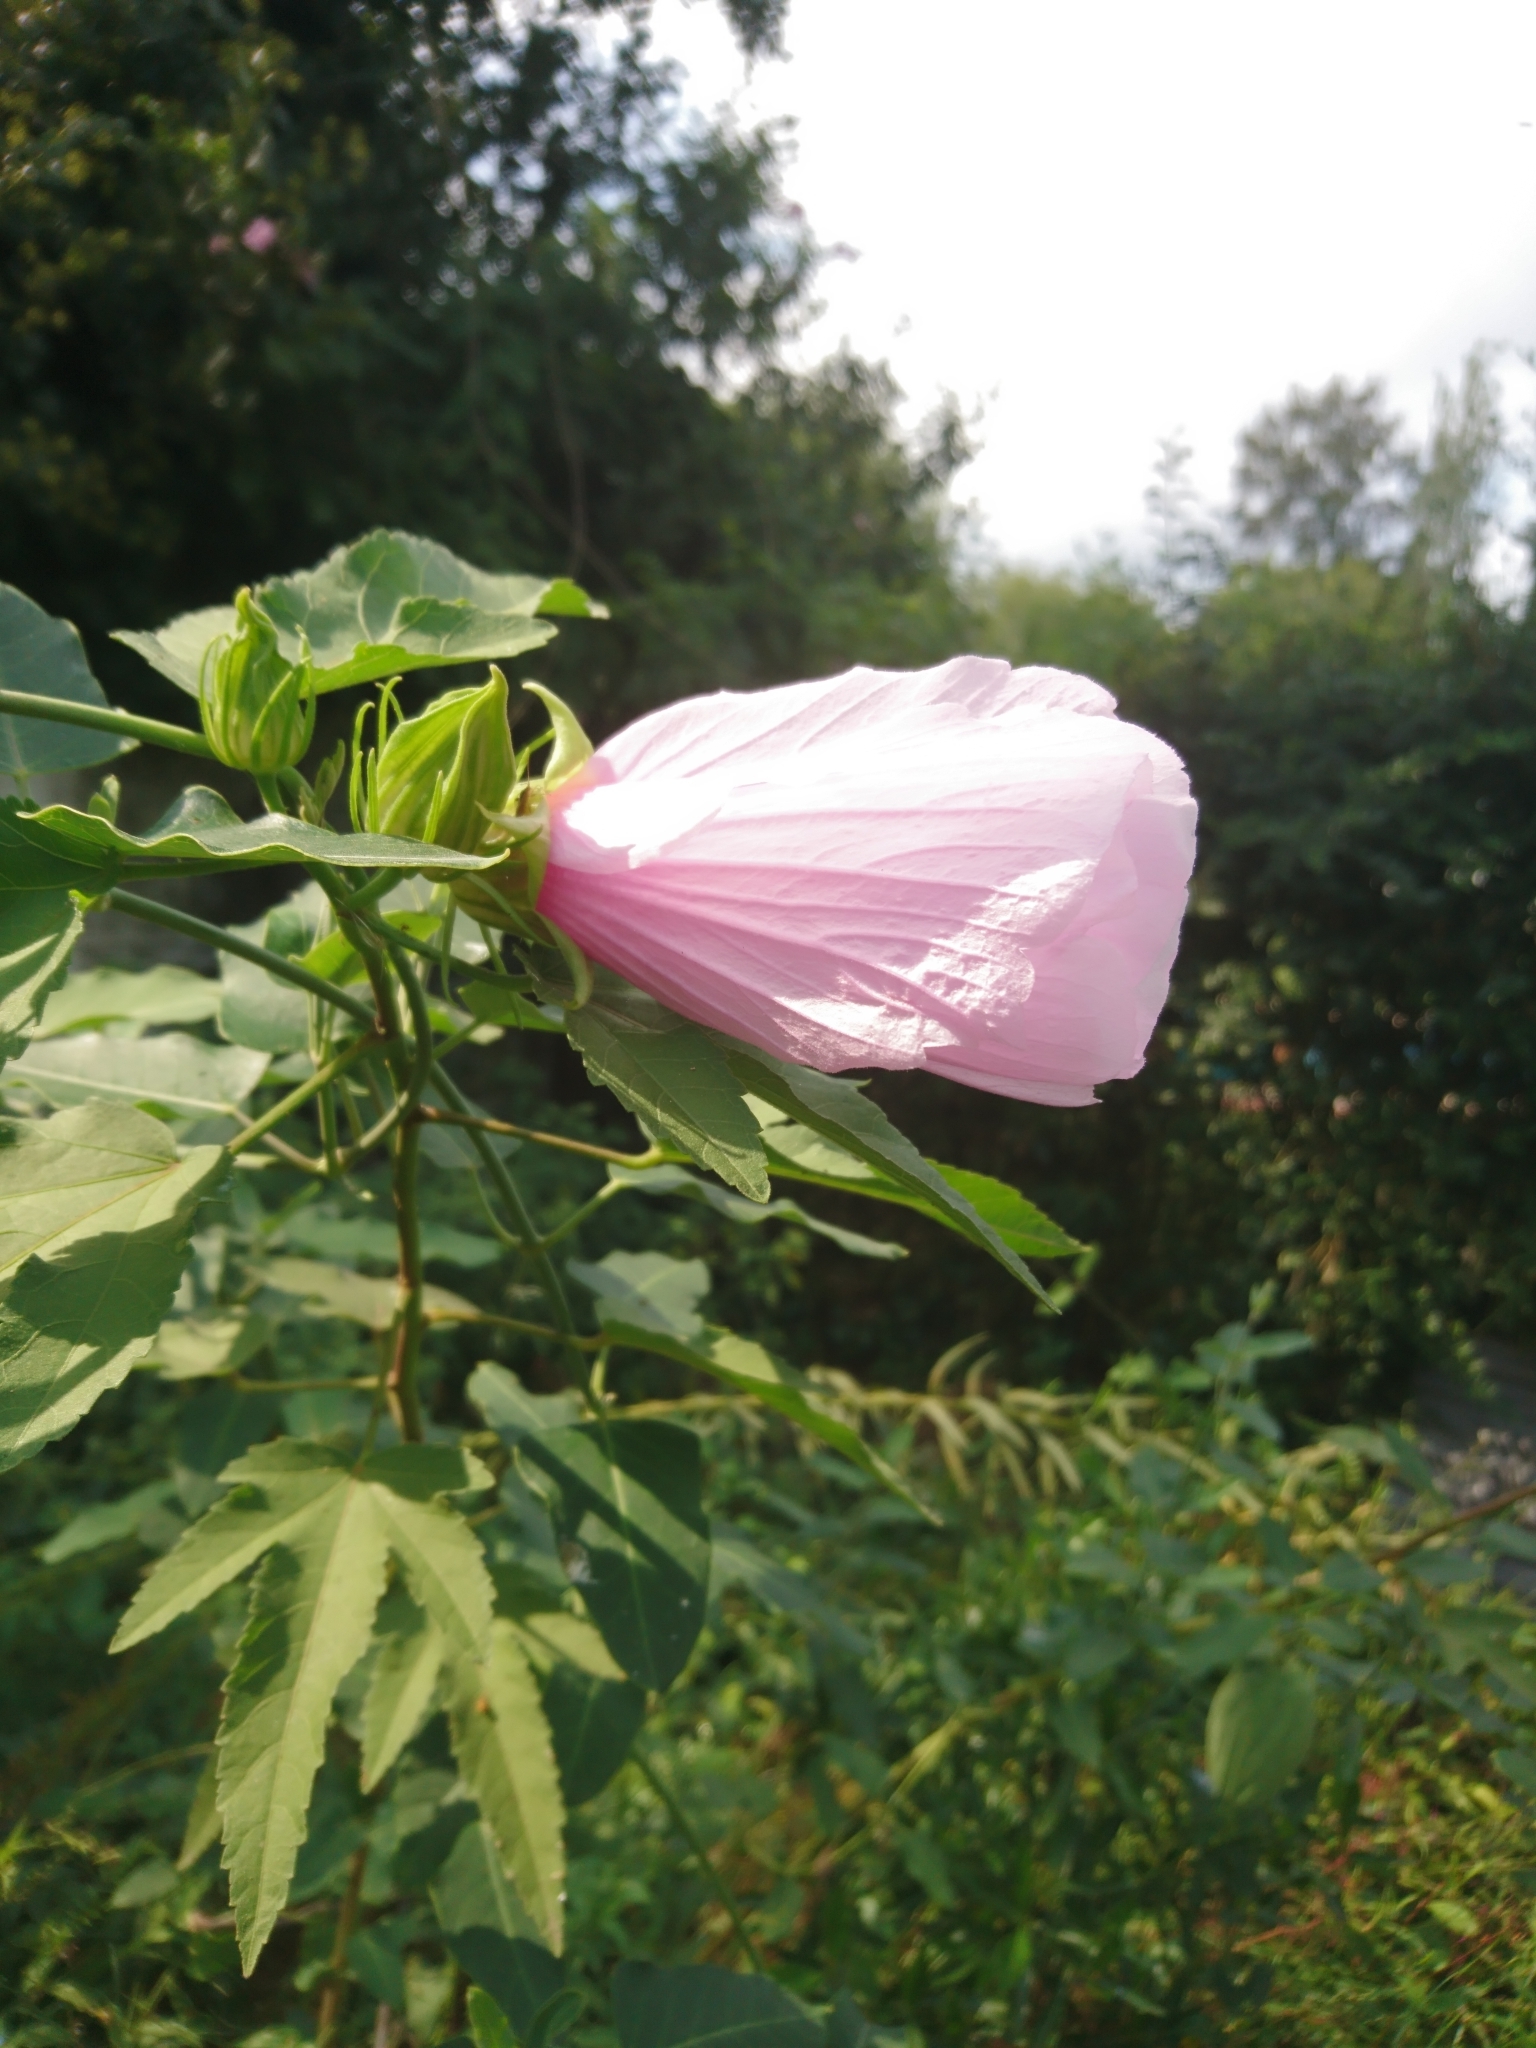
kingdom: Plantae
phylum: Tracheophyta
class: Magnoliopsida
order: Malvales
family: Malvaceae
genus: Hibiscus
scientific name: Hibiscus striatus
